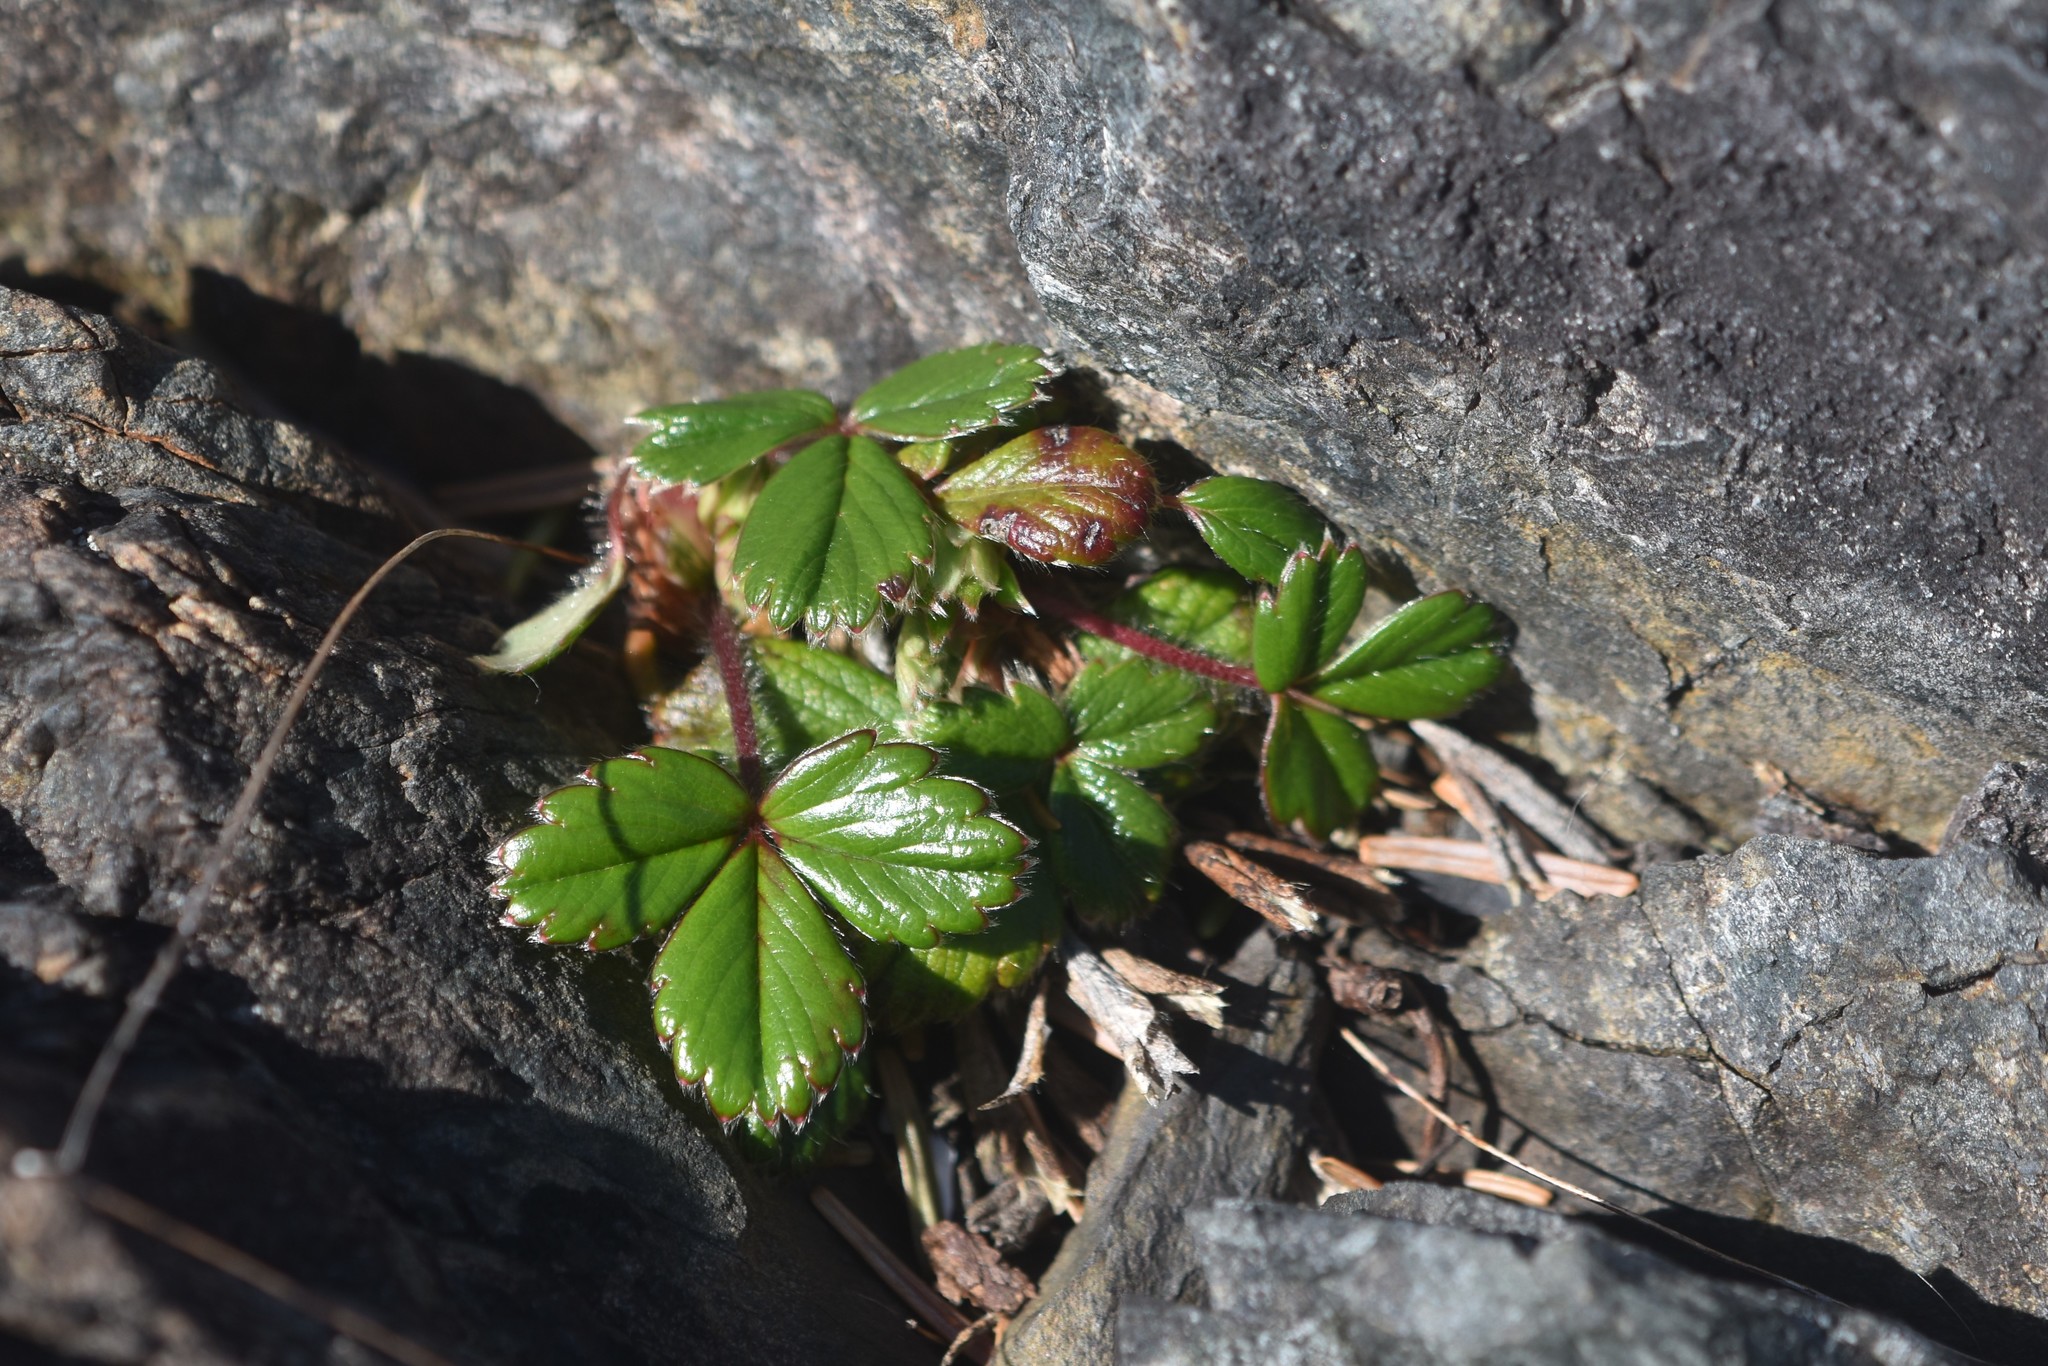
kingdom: Plantae
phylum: Tracheophyta
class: Magnoliopsida
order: Rosales
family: Rosaceae
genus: Fragaria
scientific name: Fragaria chiloensis
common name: Beach strawberry
